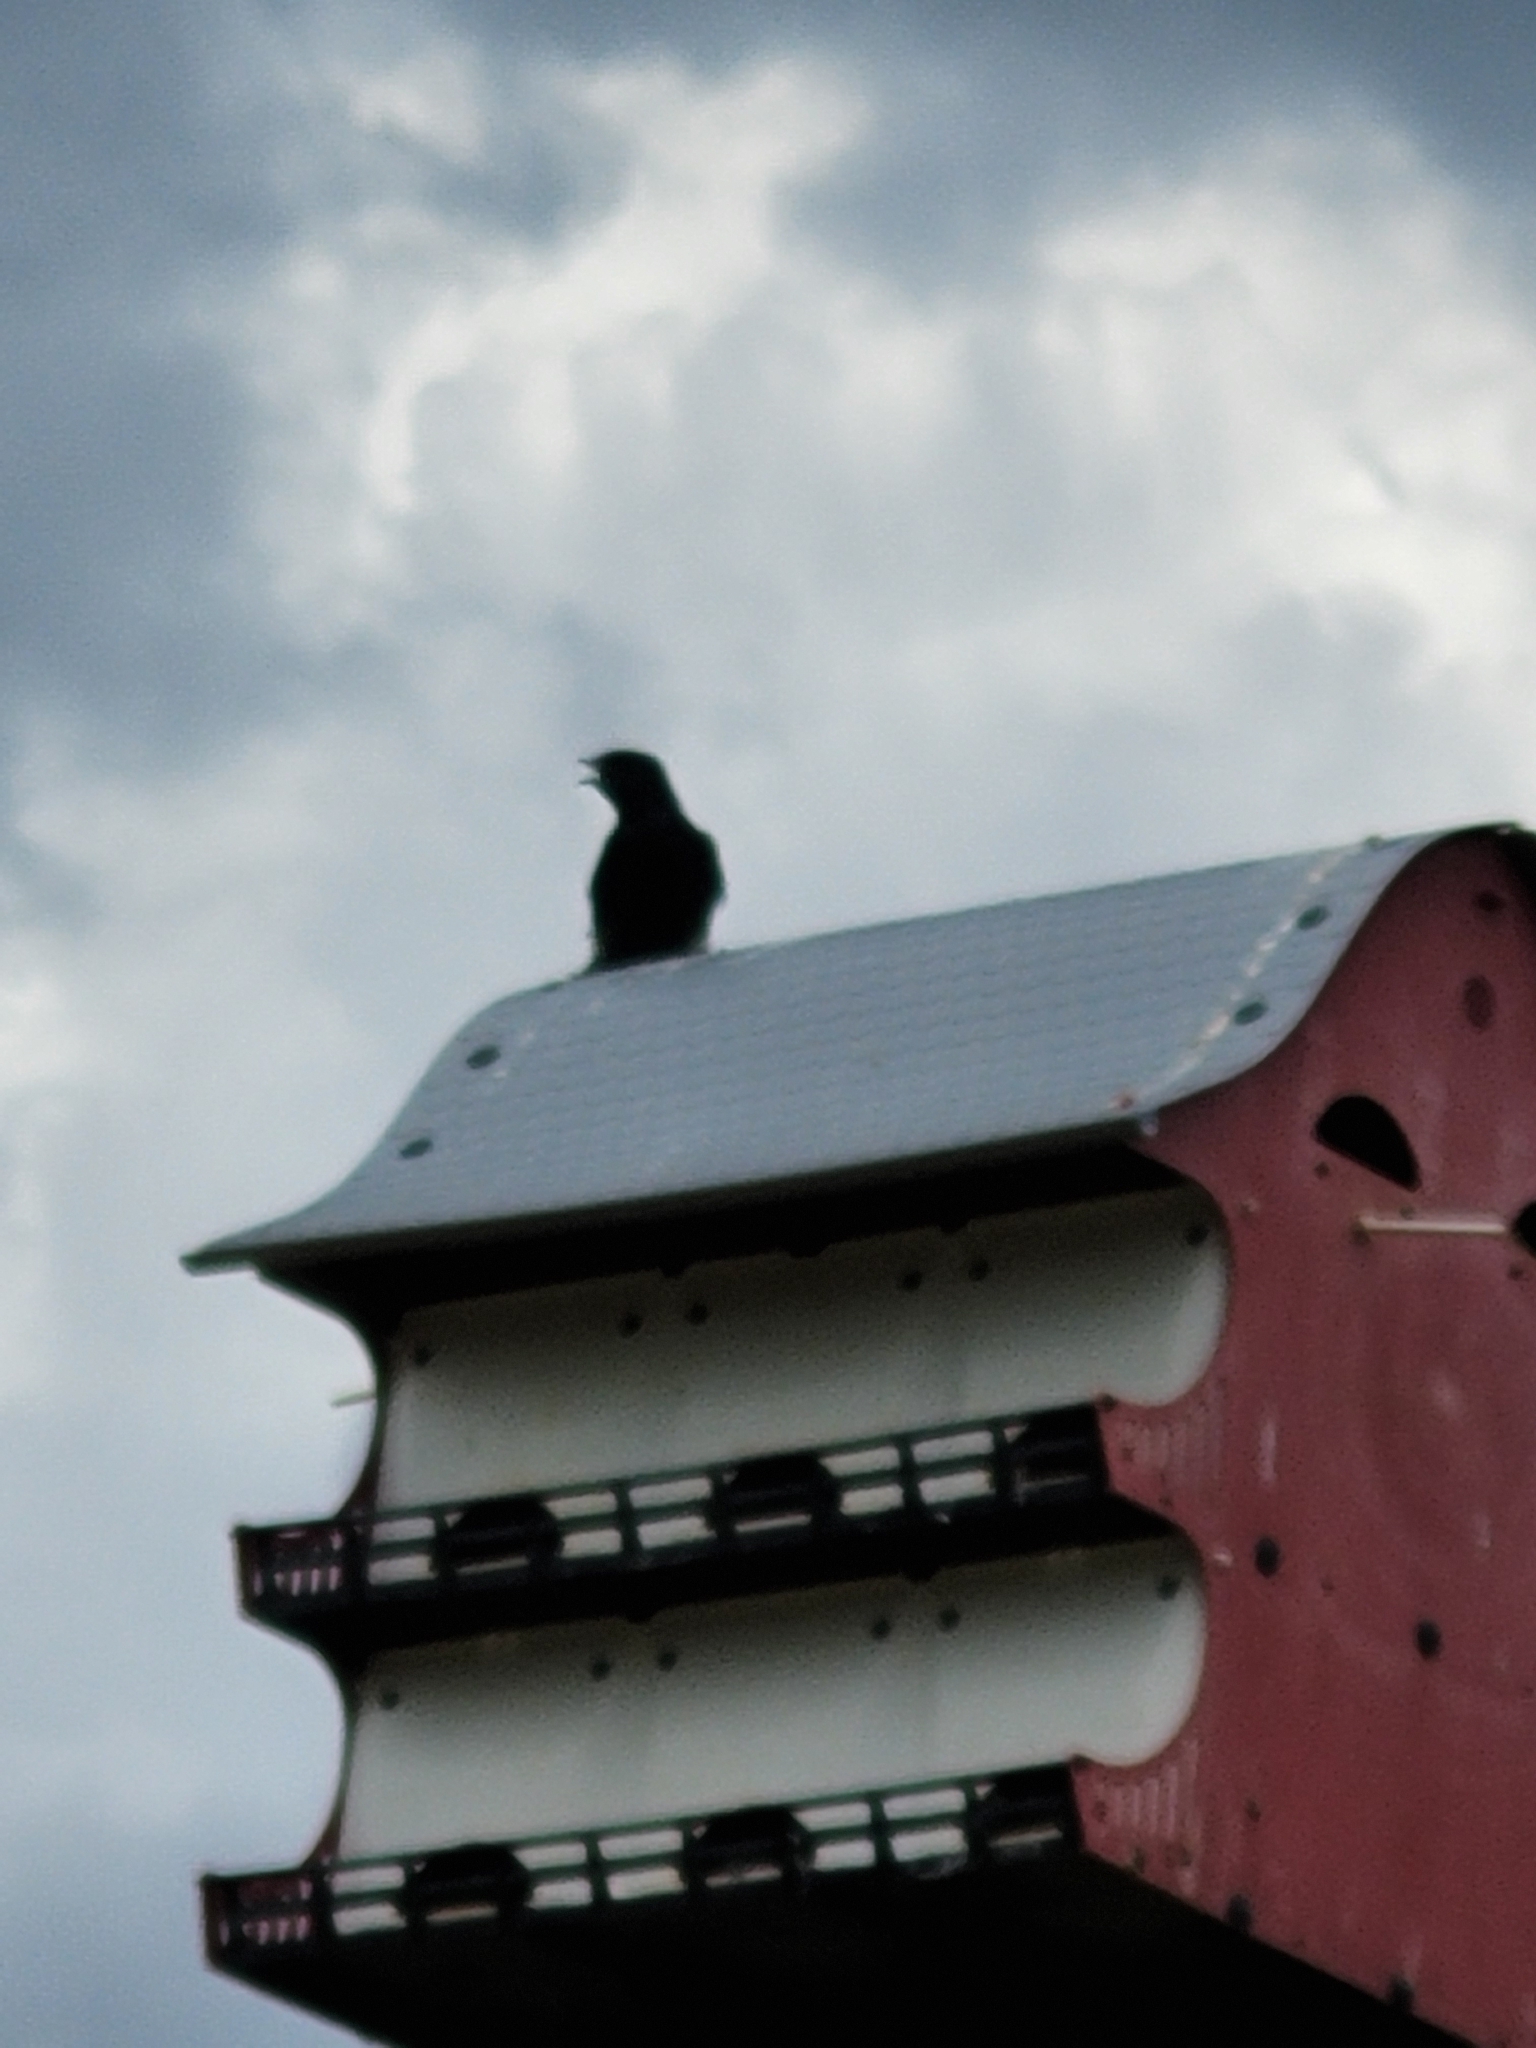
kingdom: Animalia
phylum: Chordata
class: Aves
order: Passeriformes
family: Hirundinidae
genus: Progne
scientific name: Progne subis
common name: Purple martin
